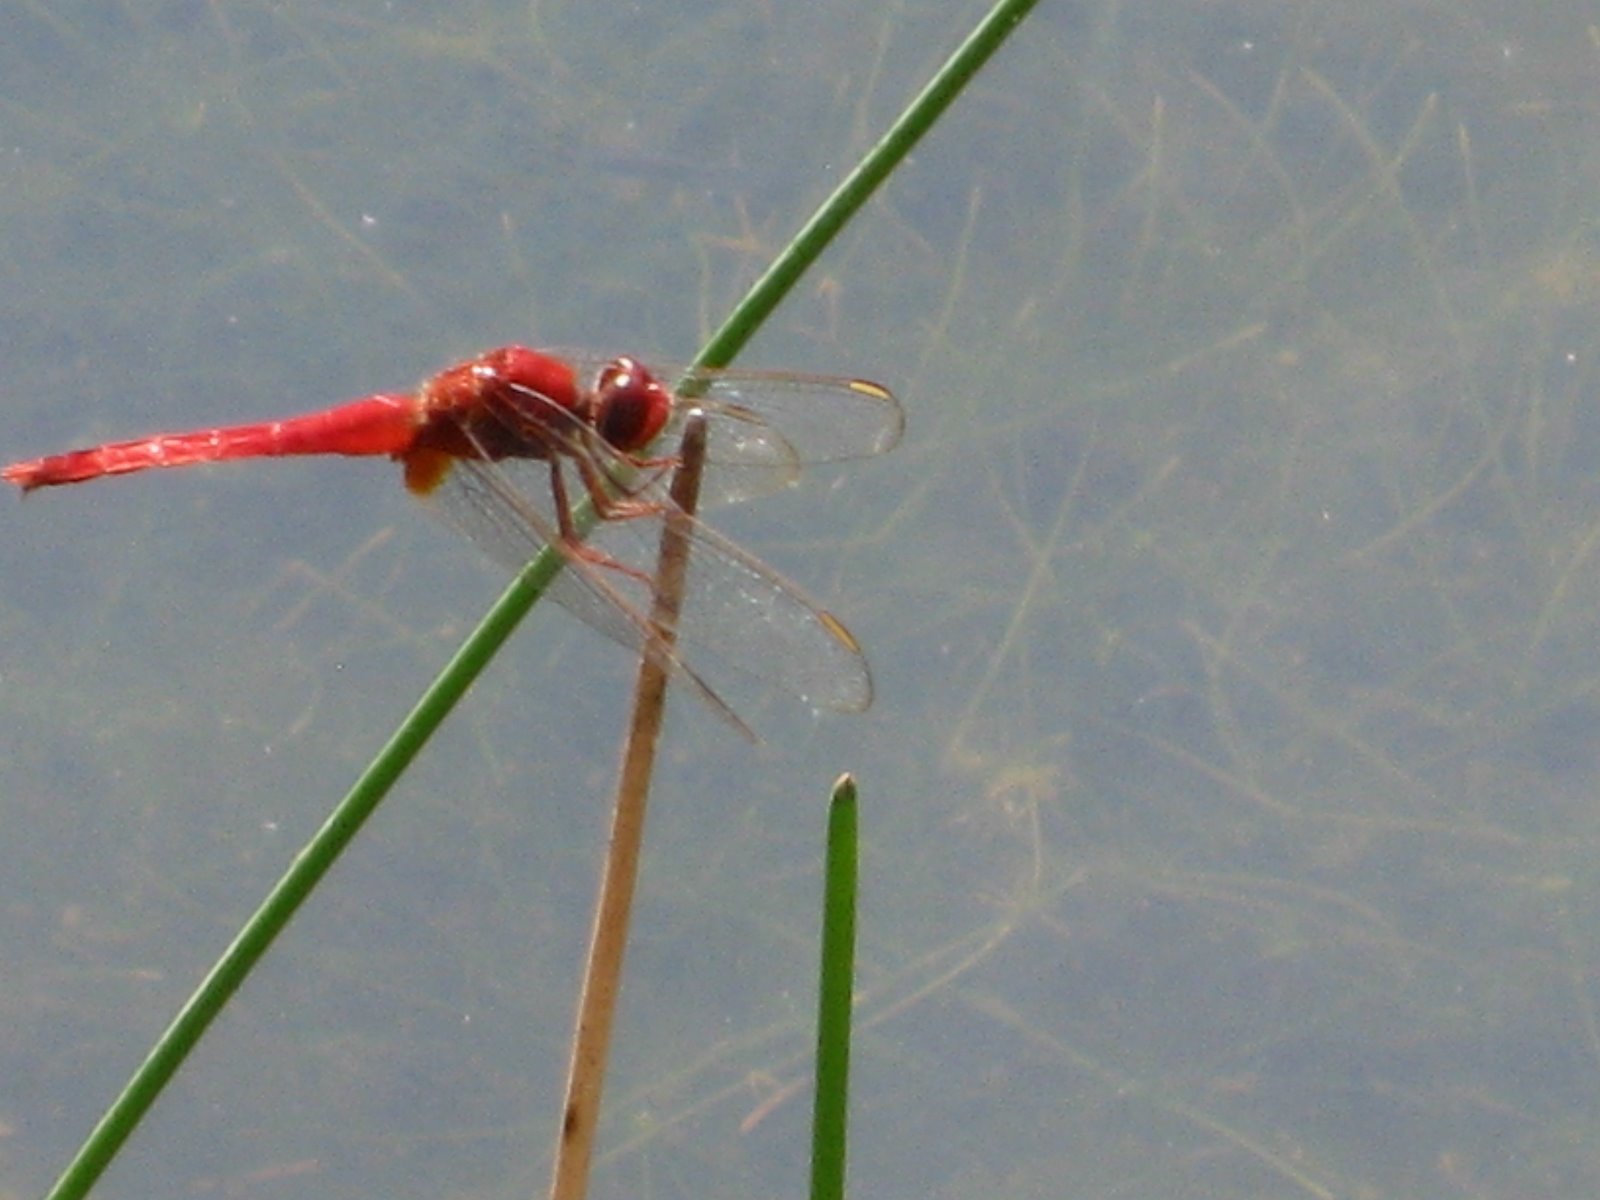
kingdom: Animalia
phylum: Arthropoda
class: Insecta
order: Odonata
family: Libellulidae
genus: Crocothemis
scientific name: Crocothemis servilia
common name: Scarlet skimmer
